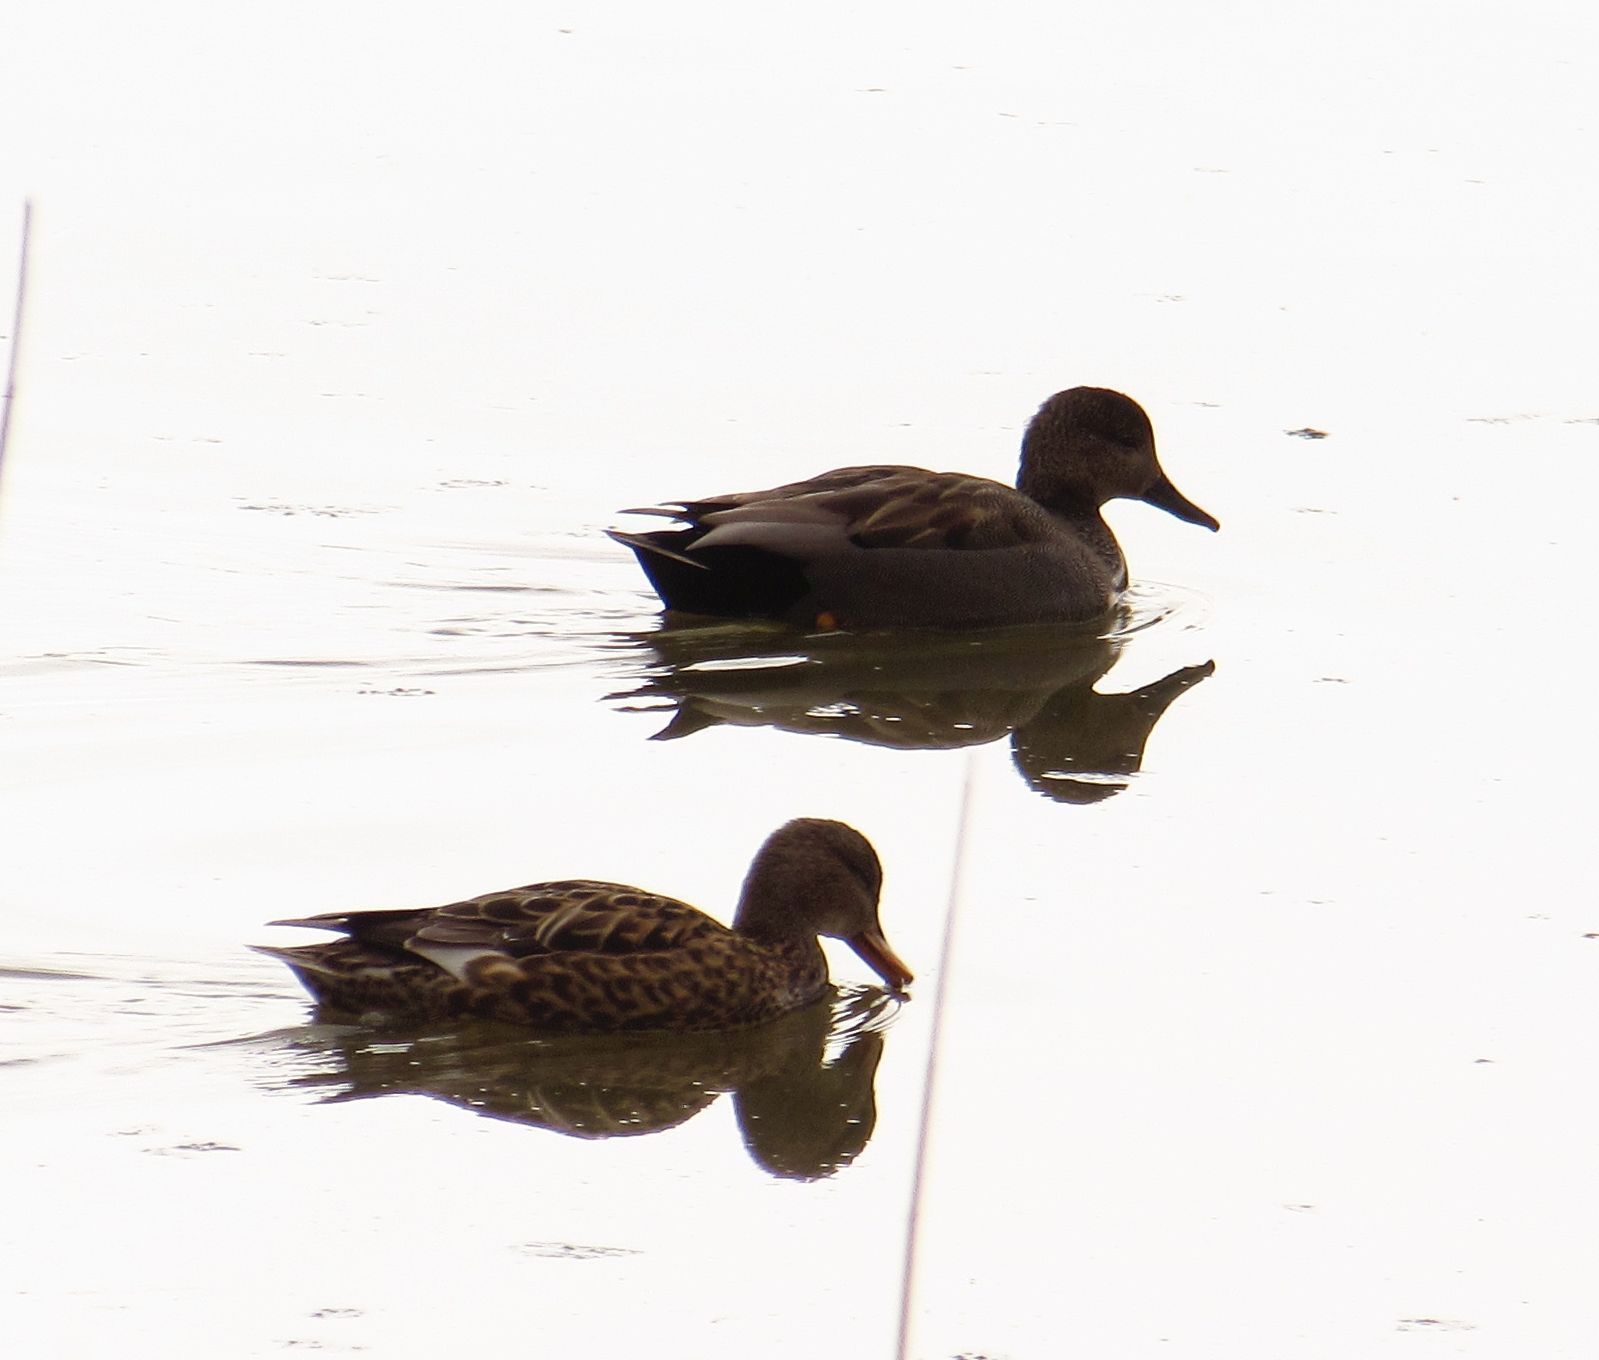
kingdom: Animalia
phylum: Chordata
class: Aves
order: Anseriformes
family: Anatidae
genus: Mareca
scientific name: Mareca strepera
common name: Gadwall
